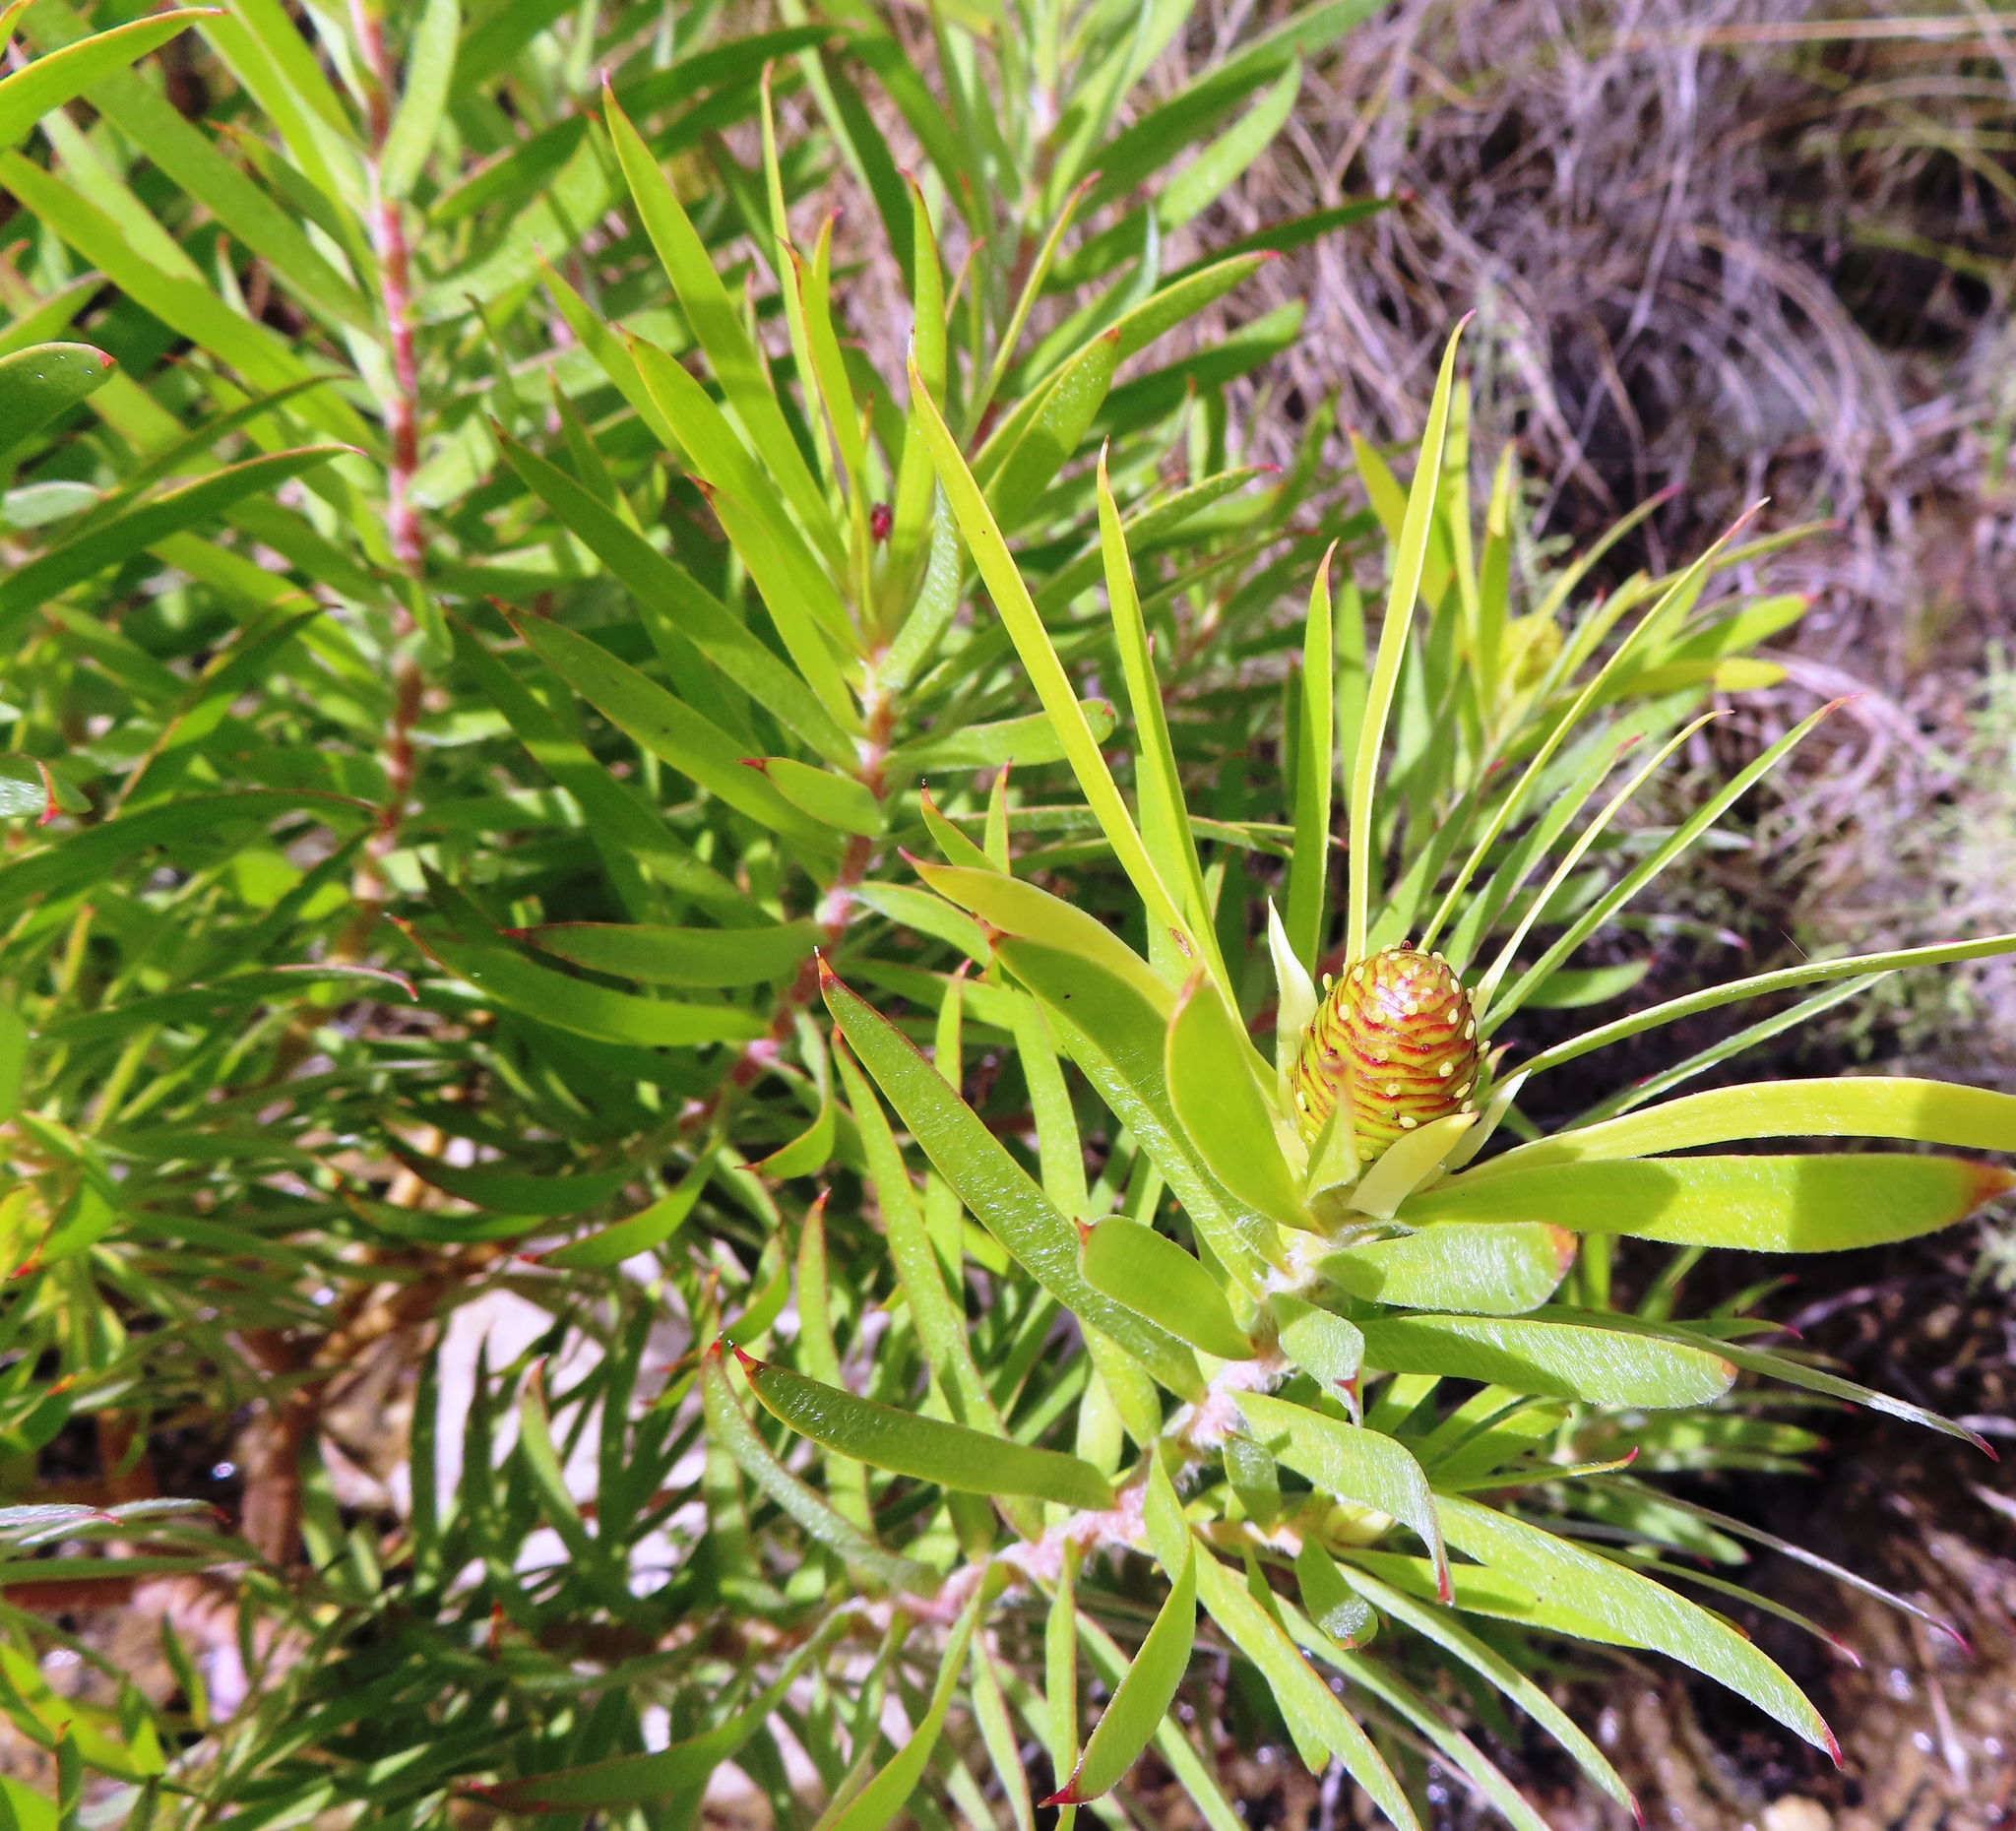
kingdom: Plantae
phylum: Tracheophyta
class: Magnoliopsida
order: Proteales
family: Proteaceae
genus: Leucadendron
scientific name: Leucadendron salicifolium
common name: Common stream conebush
